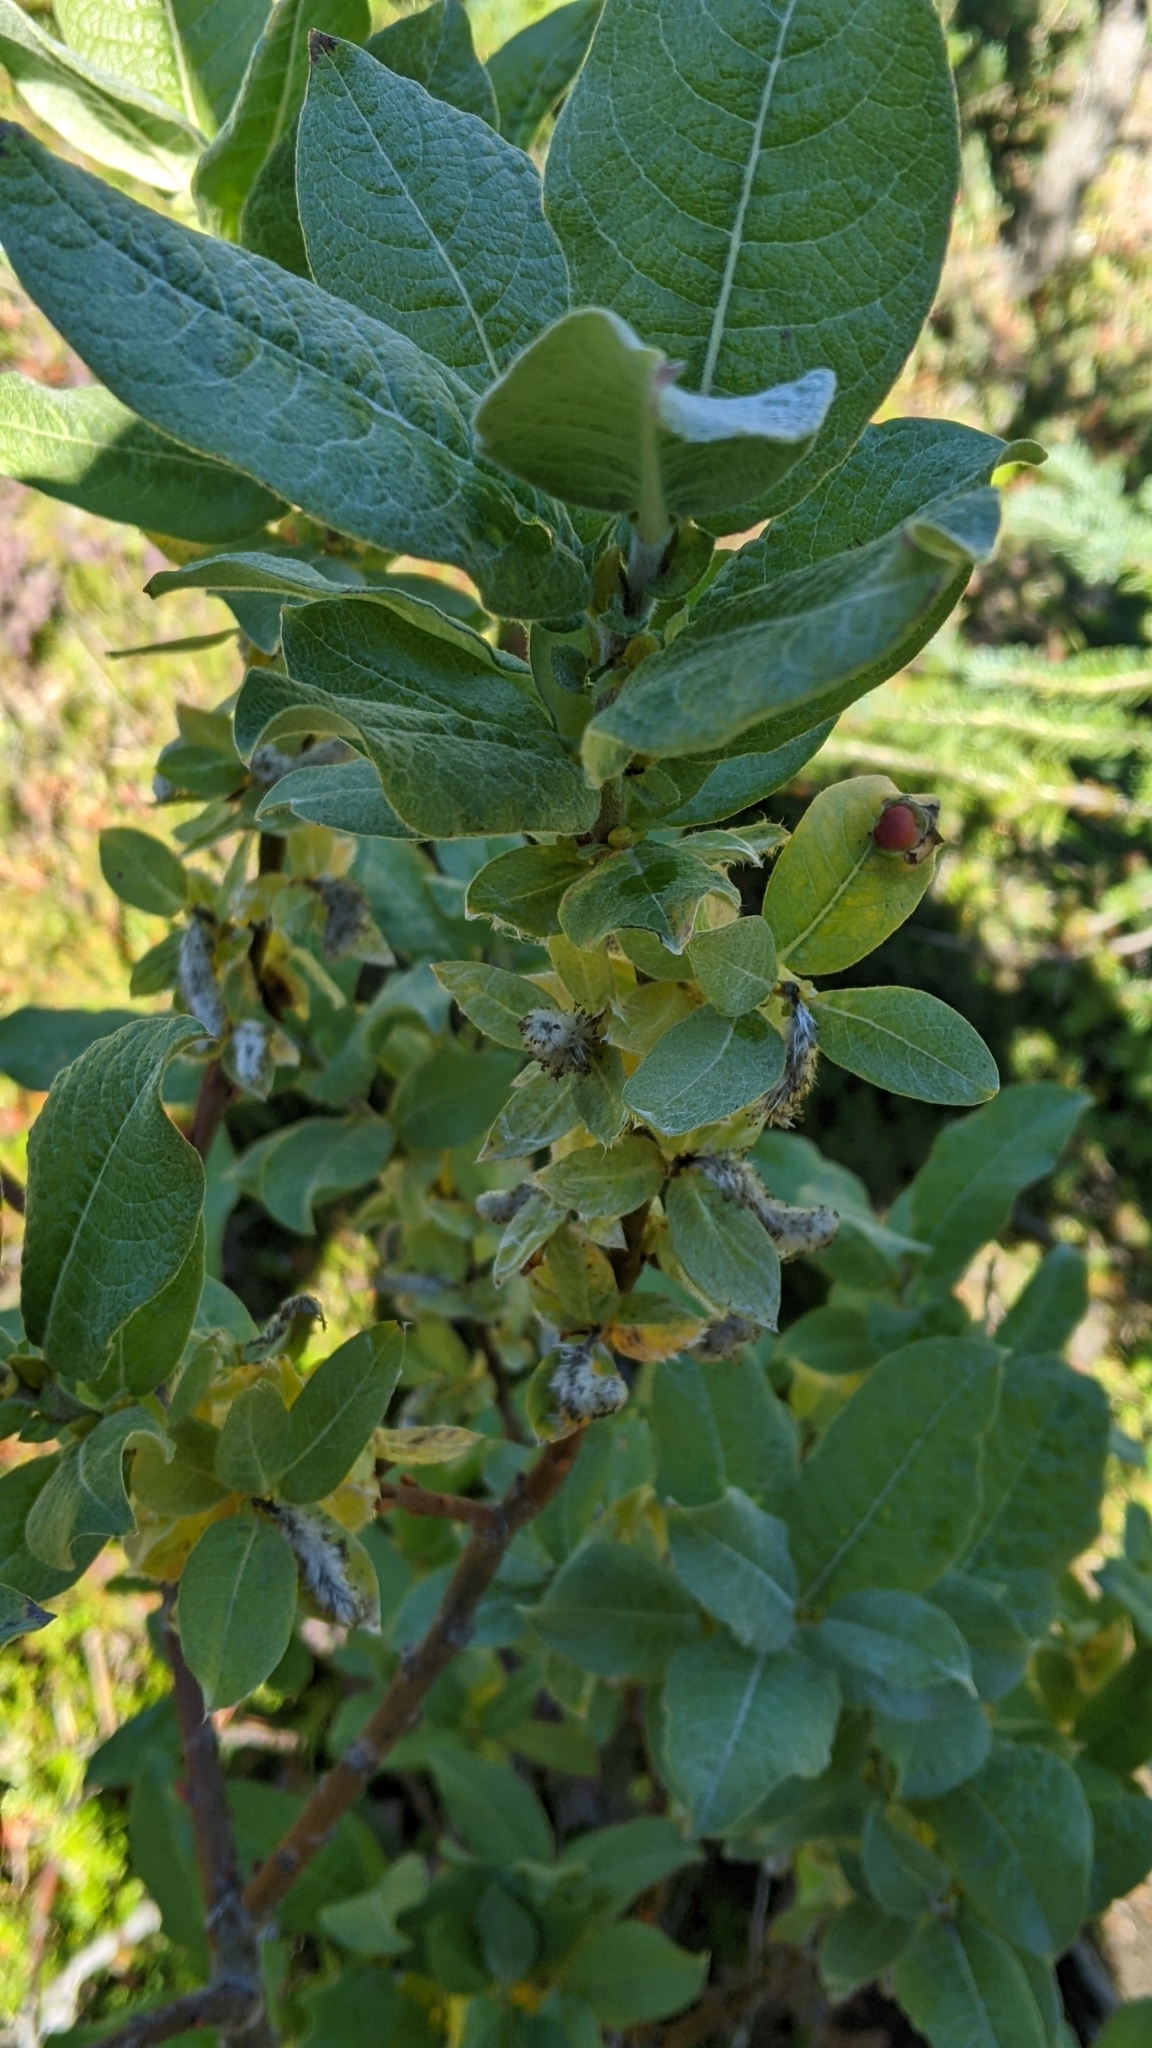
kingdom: Plantae
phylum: Tracheophyta
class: Magnoliopsida
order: Malpighiales
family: Salicaceae
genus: Salix
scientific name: Salix commutata
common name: Under-green willow
